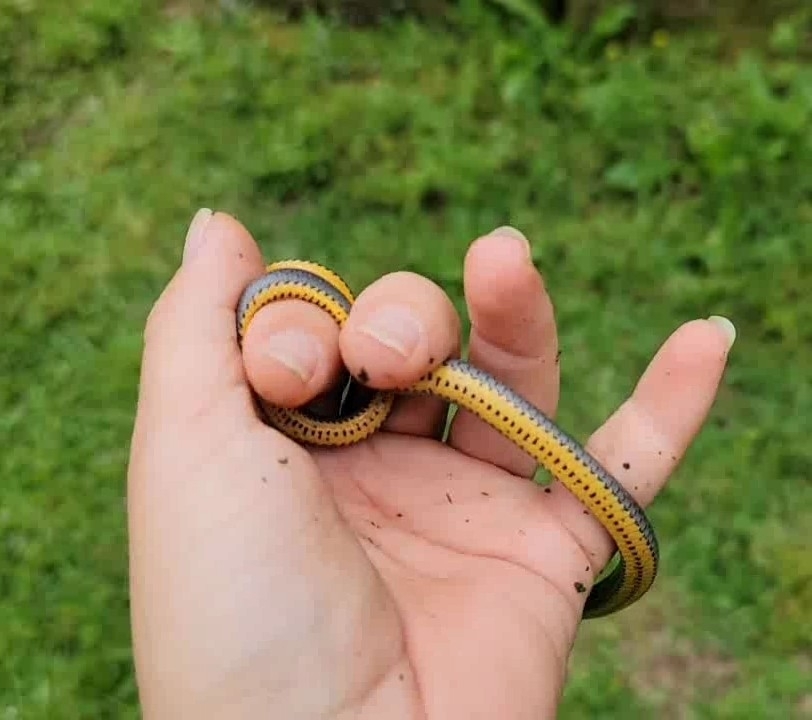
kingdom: Animalia
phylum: Chordata
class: Squamata
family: Colubridae
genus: Diadophis
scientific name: Diadophis punctatus
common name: Ringneck snake
